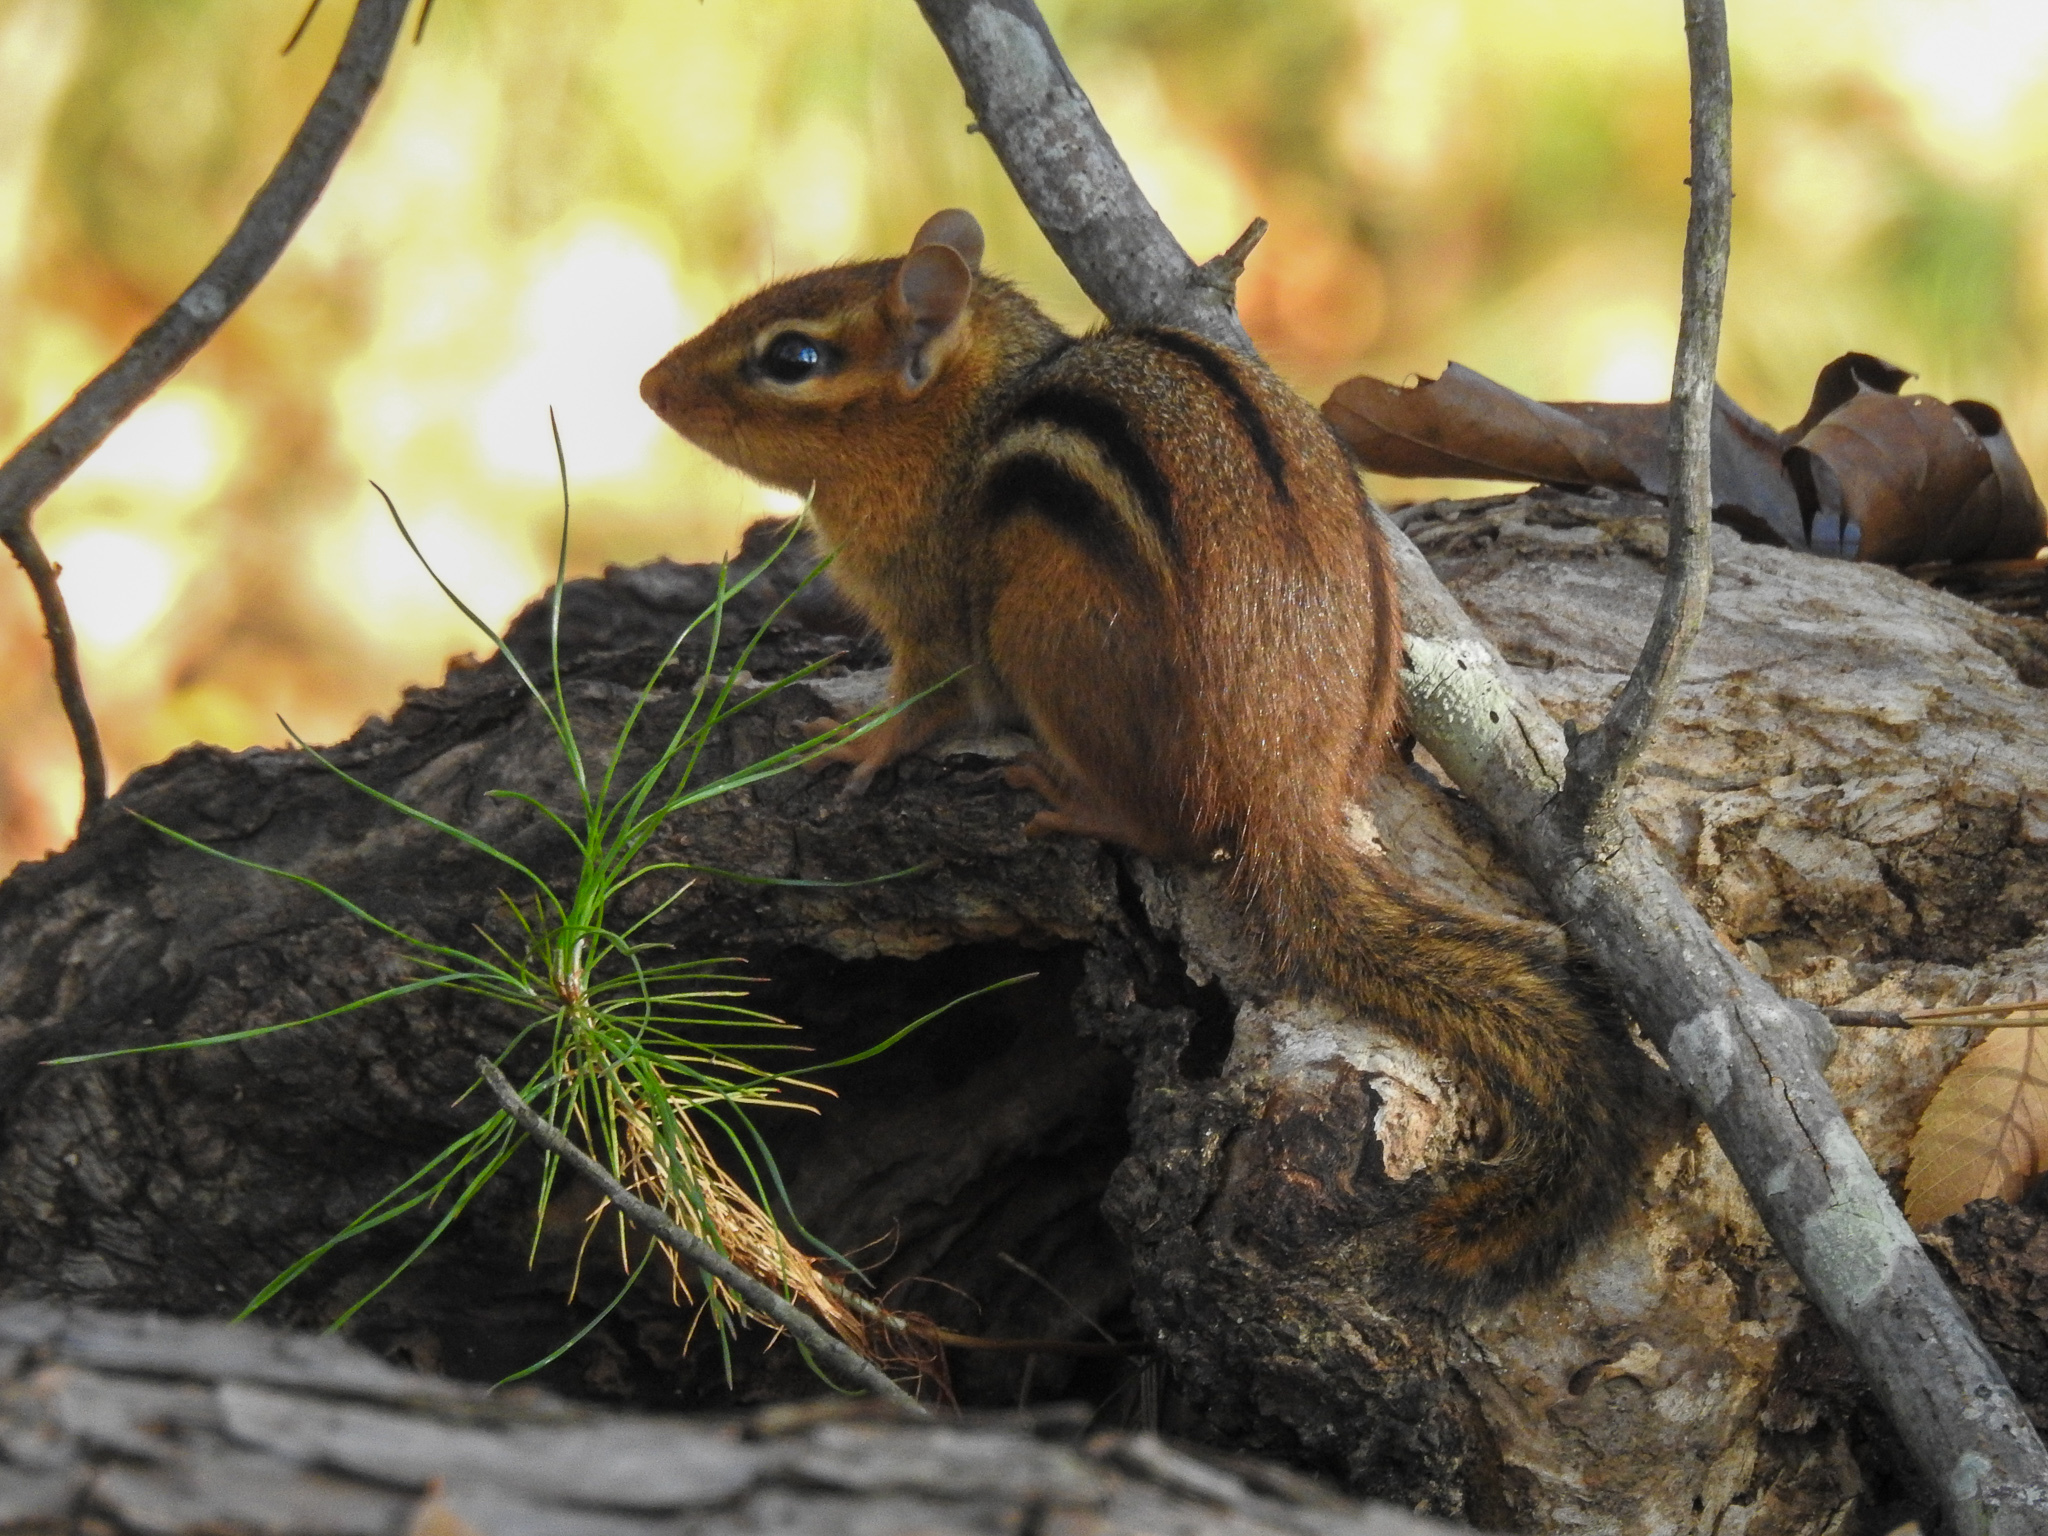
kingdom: Animalia
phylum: Chordata
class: Mammalia
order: Rodentia
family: Sciuridae
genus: Tamias
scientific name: Tamias striatus
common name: Eastern chipmunk
